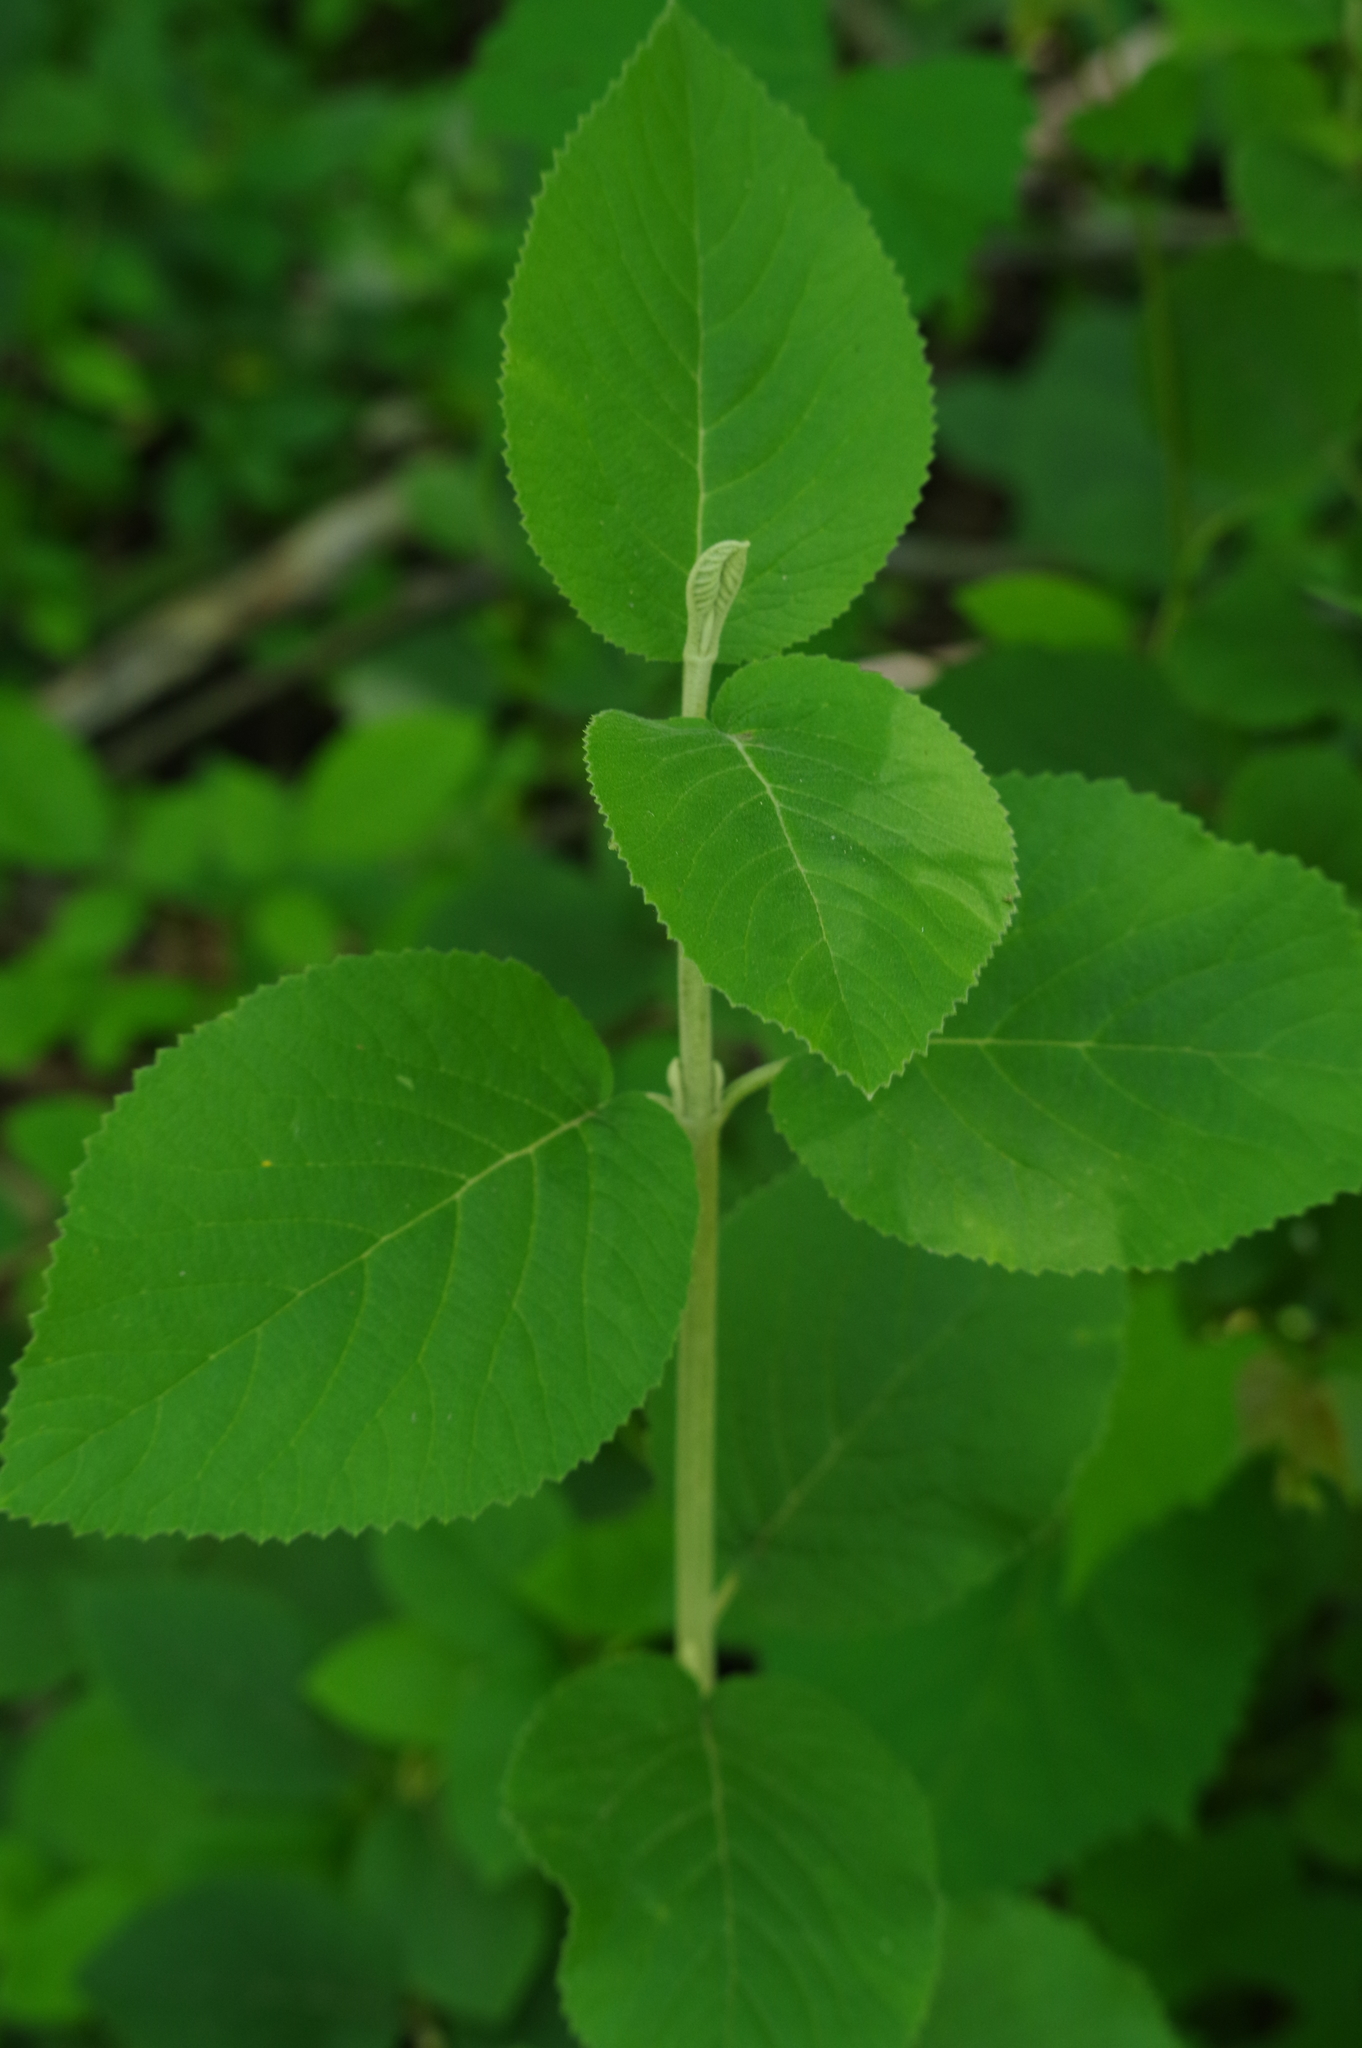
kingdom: Plantae
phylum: Tracheophyta
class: Magnoliopsida
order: Dipsacales
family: Viburnaceae
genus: Viburnum
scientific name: Viburnum lantana
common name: Wayfaring tree
